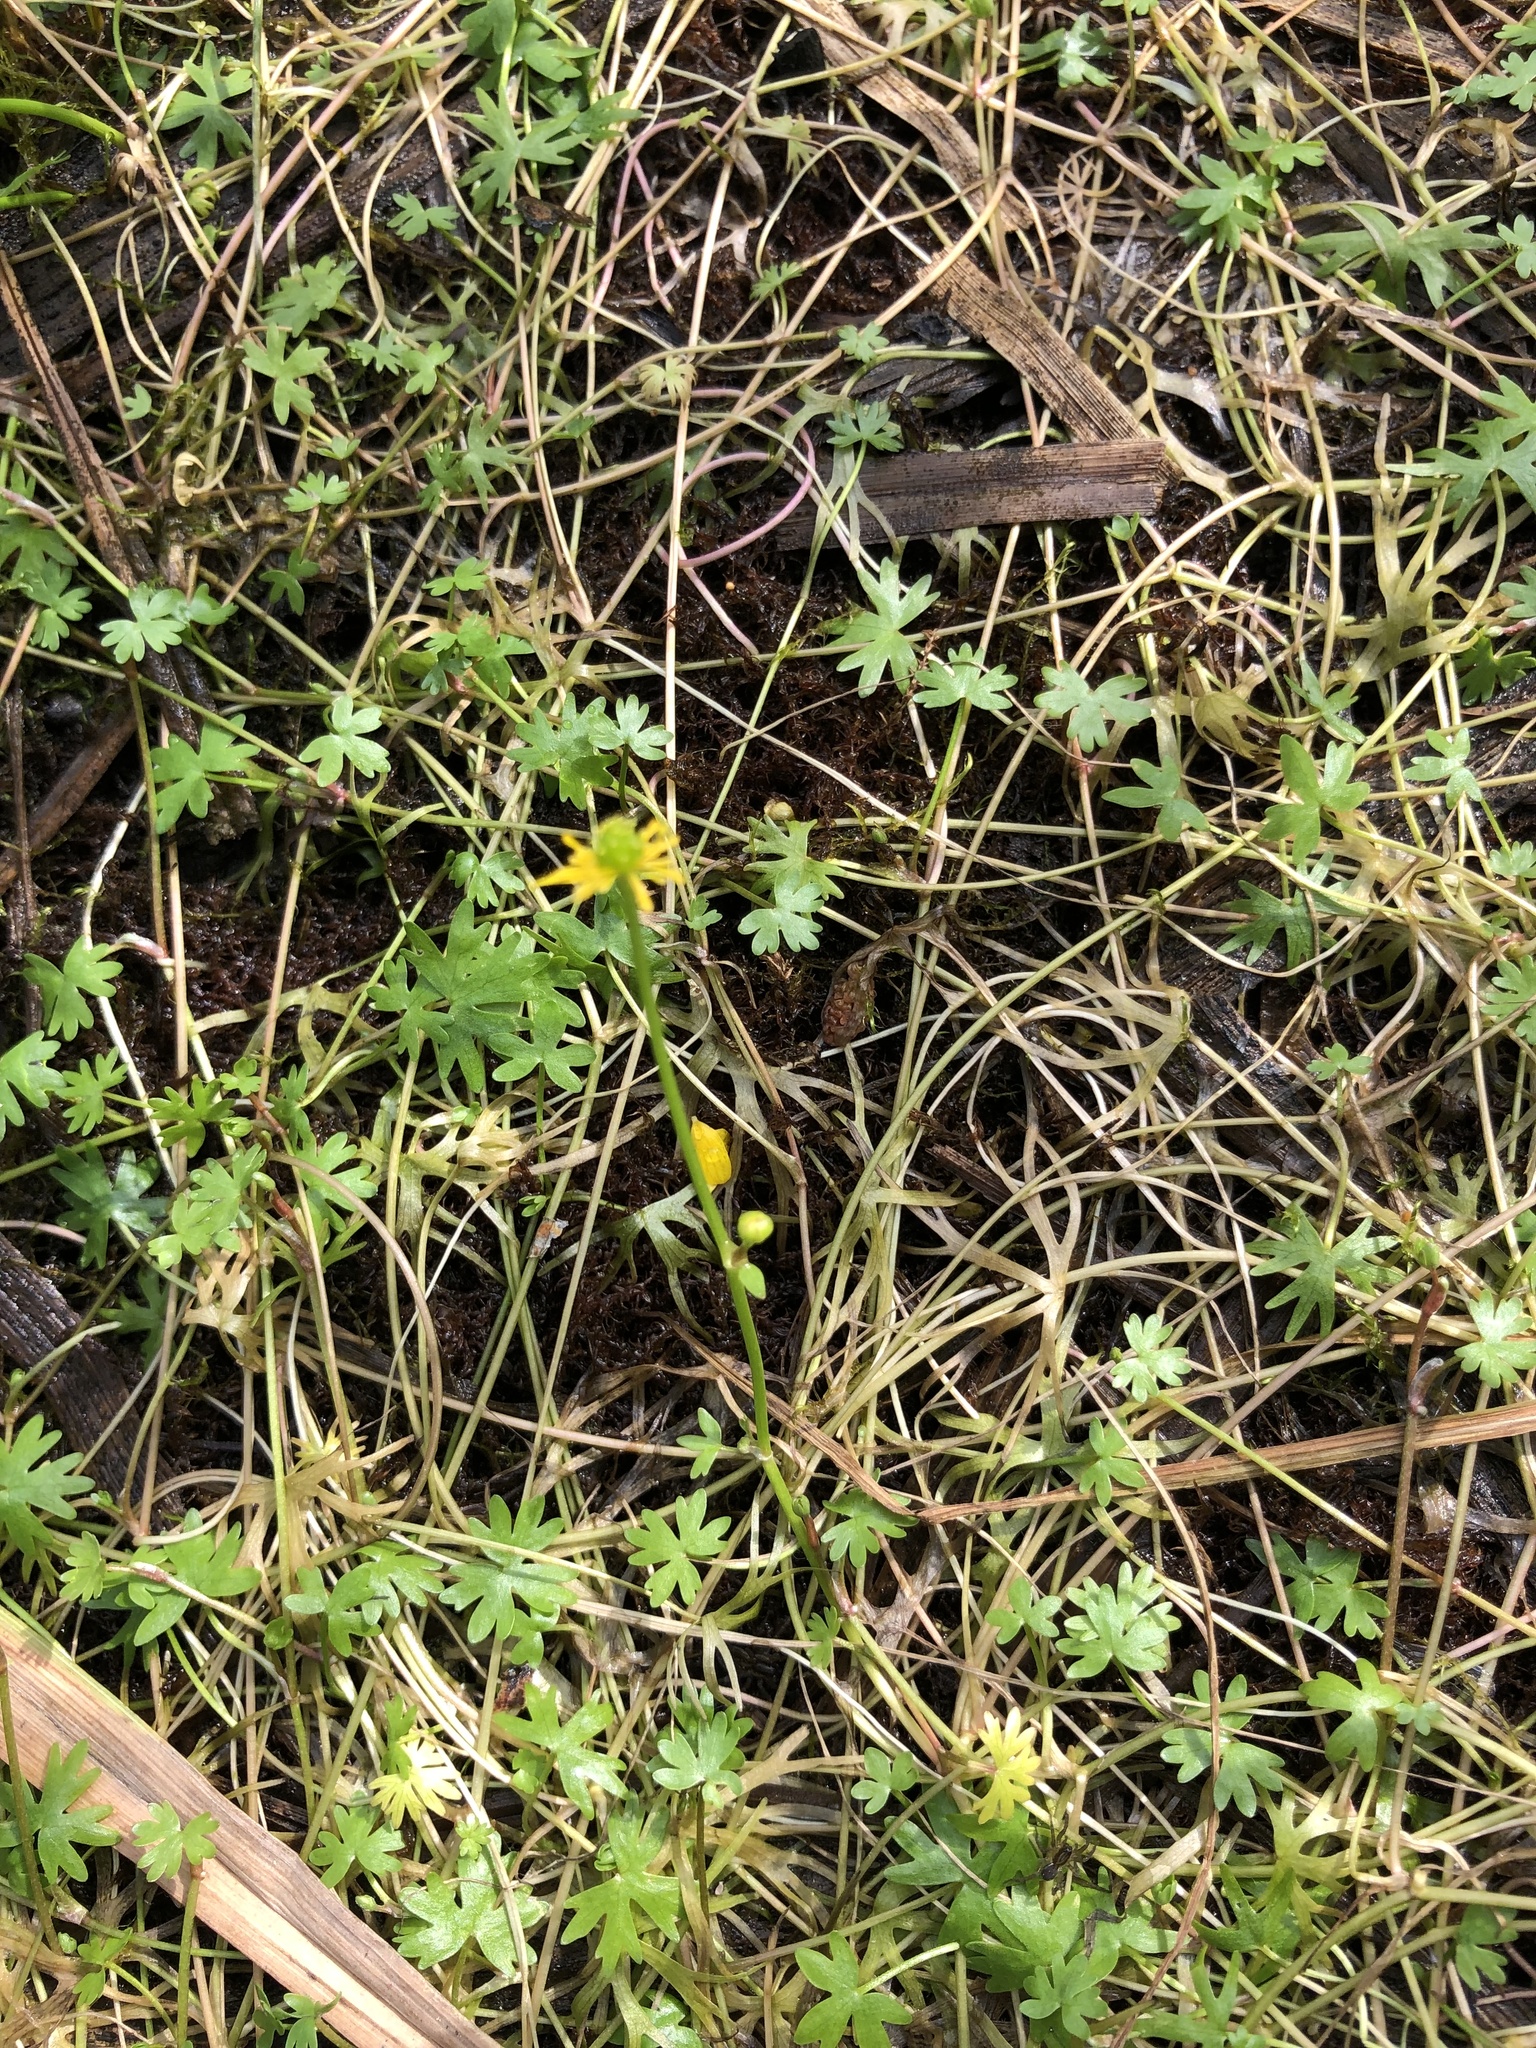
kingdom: Plantae
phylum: Tracheophyta
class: Magnoliopsida
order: Ranunculales
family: Ranunculaceae
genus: Ranunculus
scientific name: Ranunculus gmelinii
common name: Gmelin's buttercup
